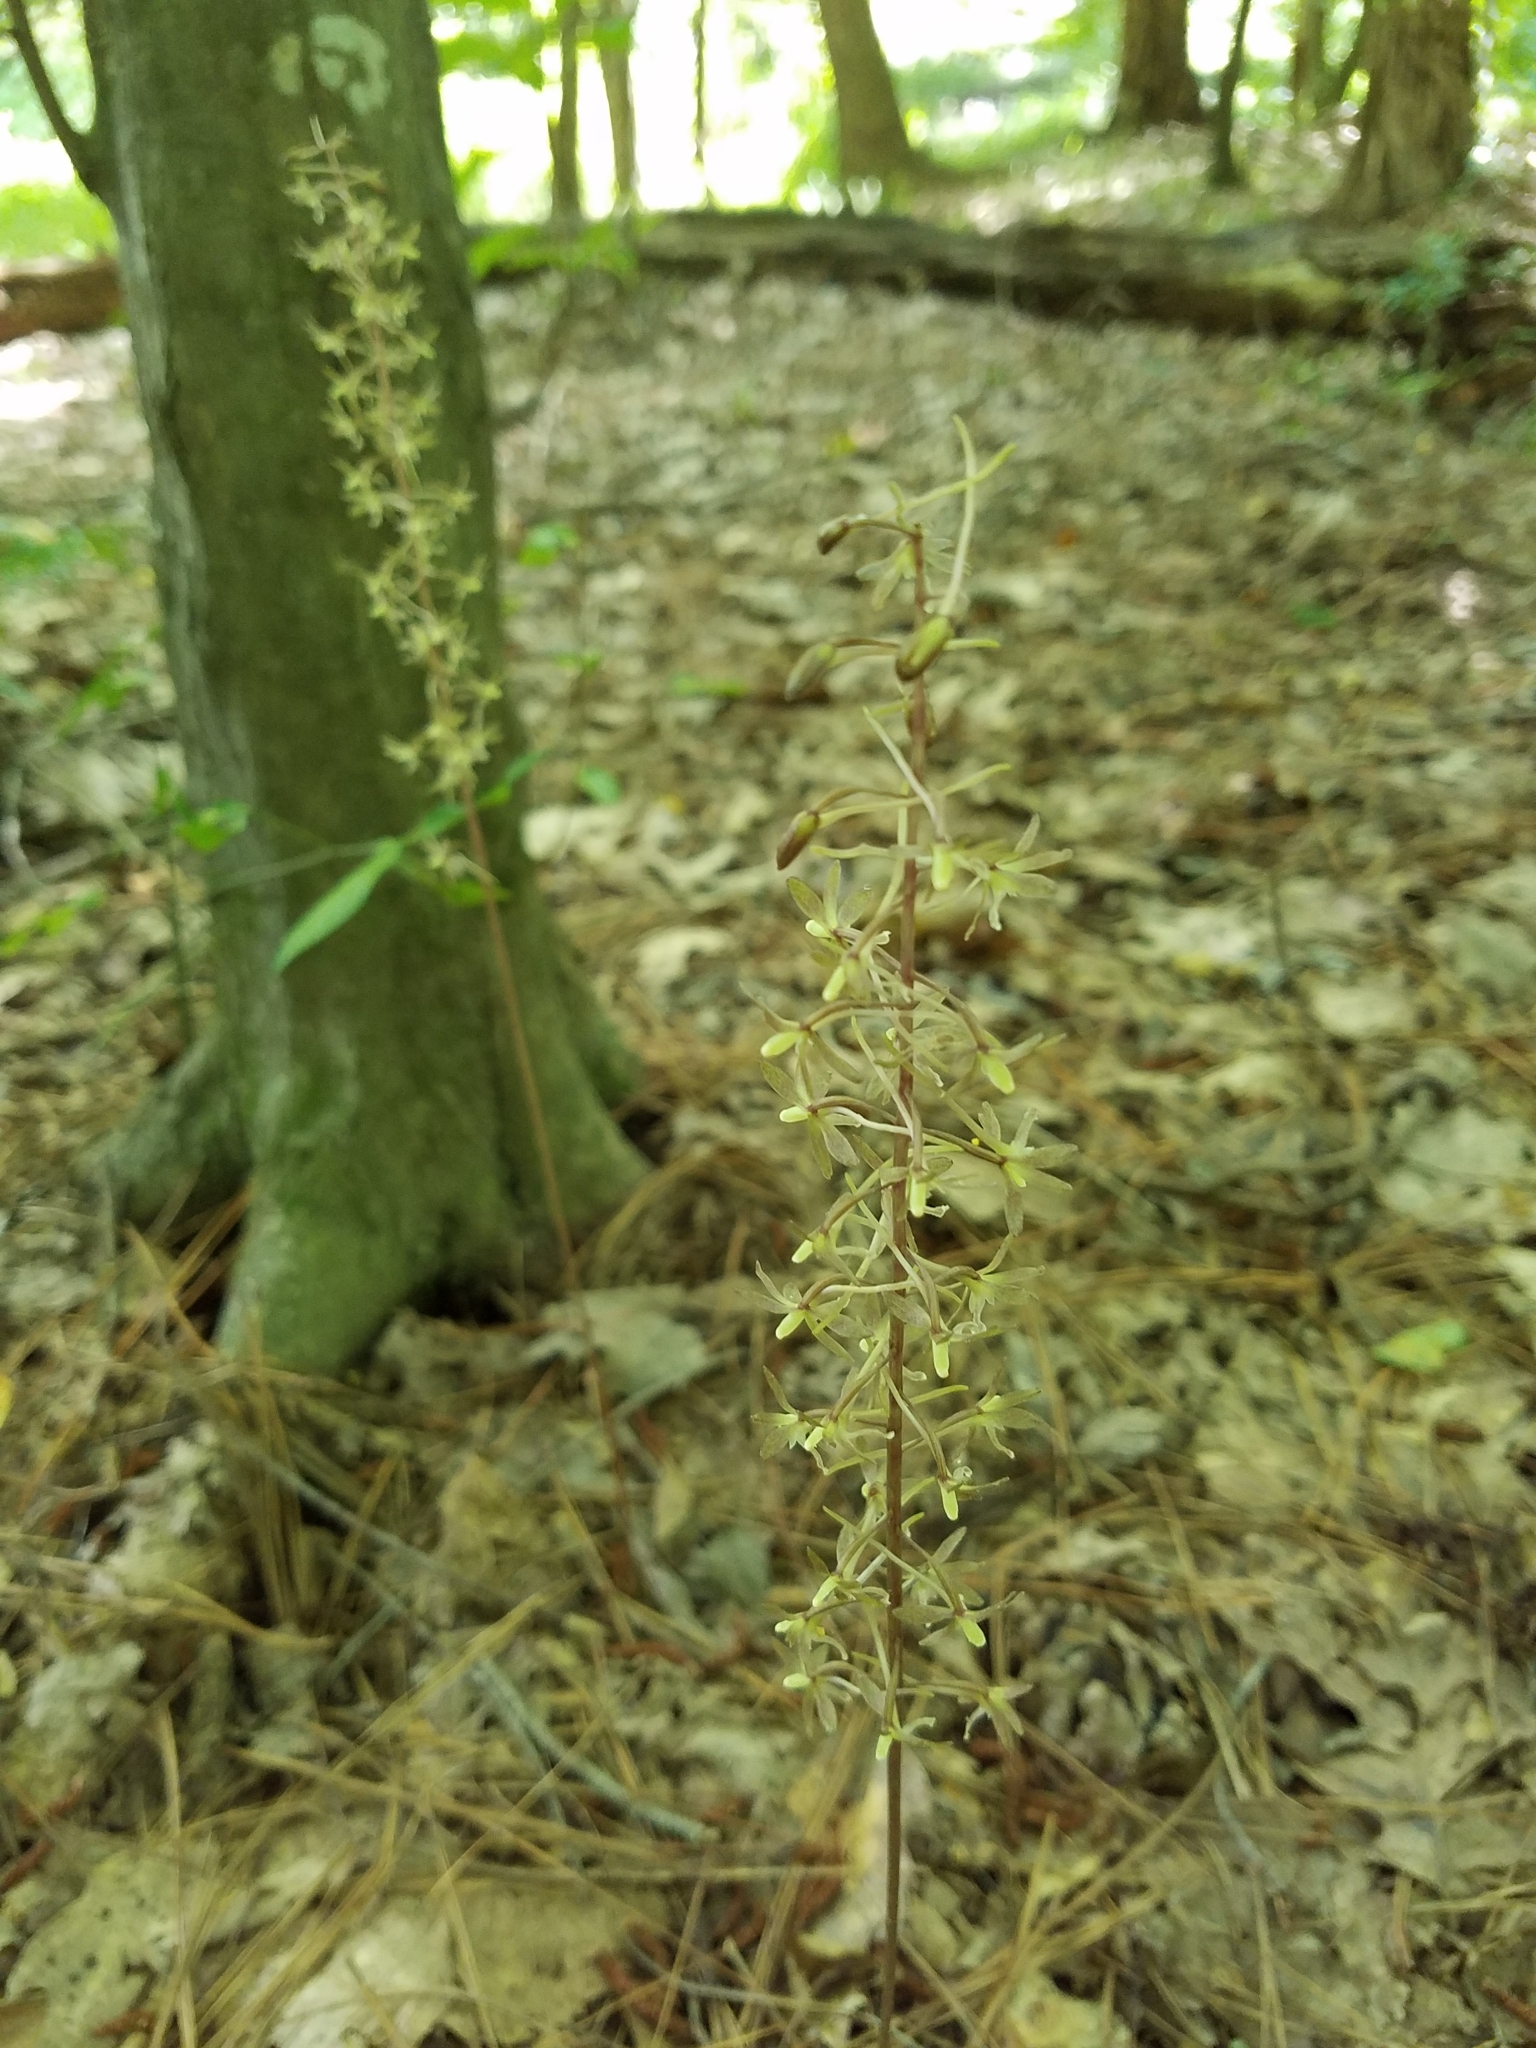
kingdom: Plantae
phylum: Tracheophyta
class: Liliopsida
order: Asparagales
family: Orchidaceae
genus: Tipularia
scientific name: Tipularia discolor
